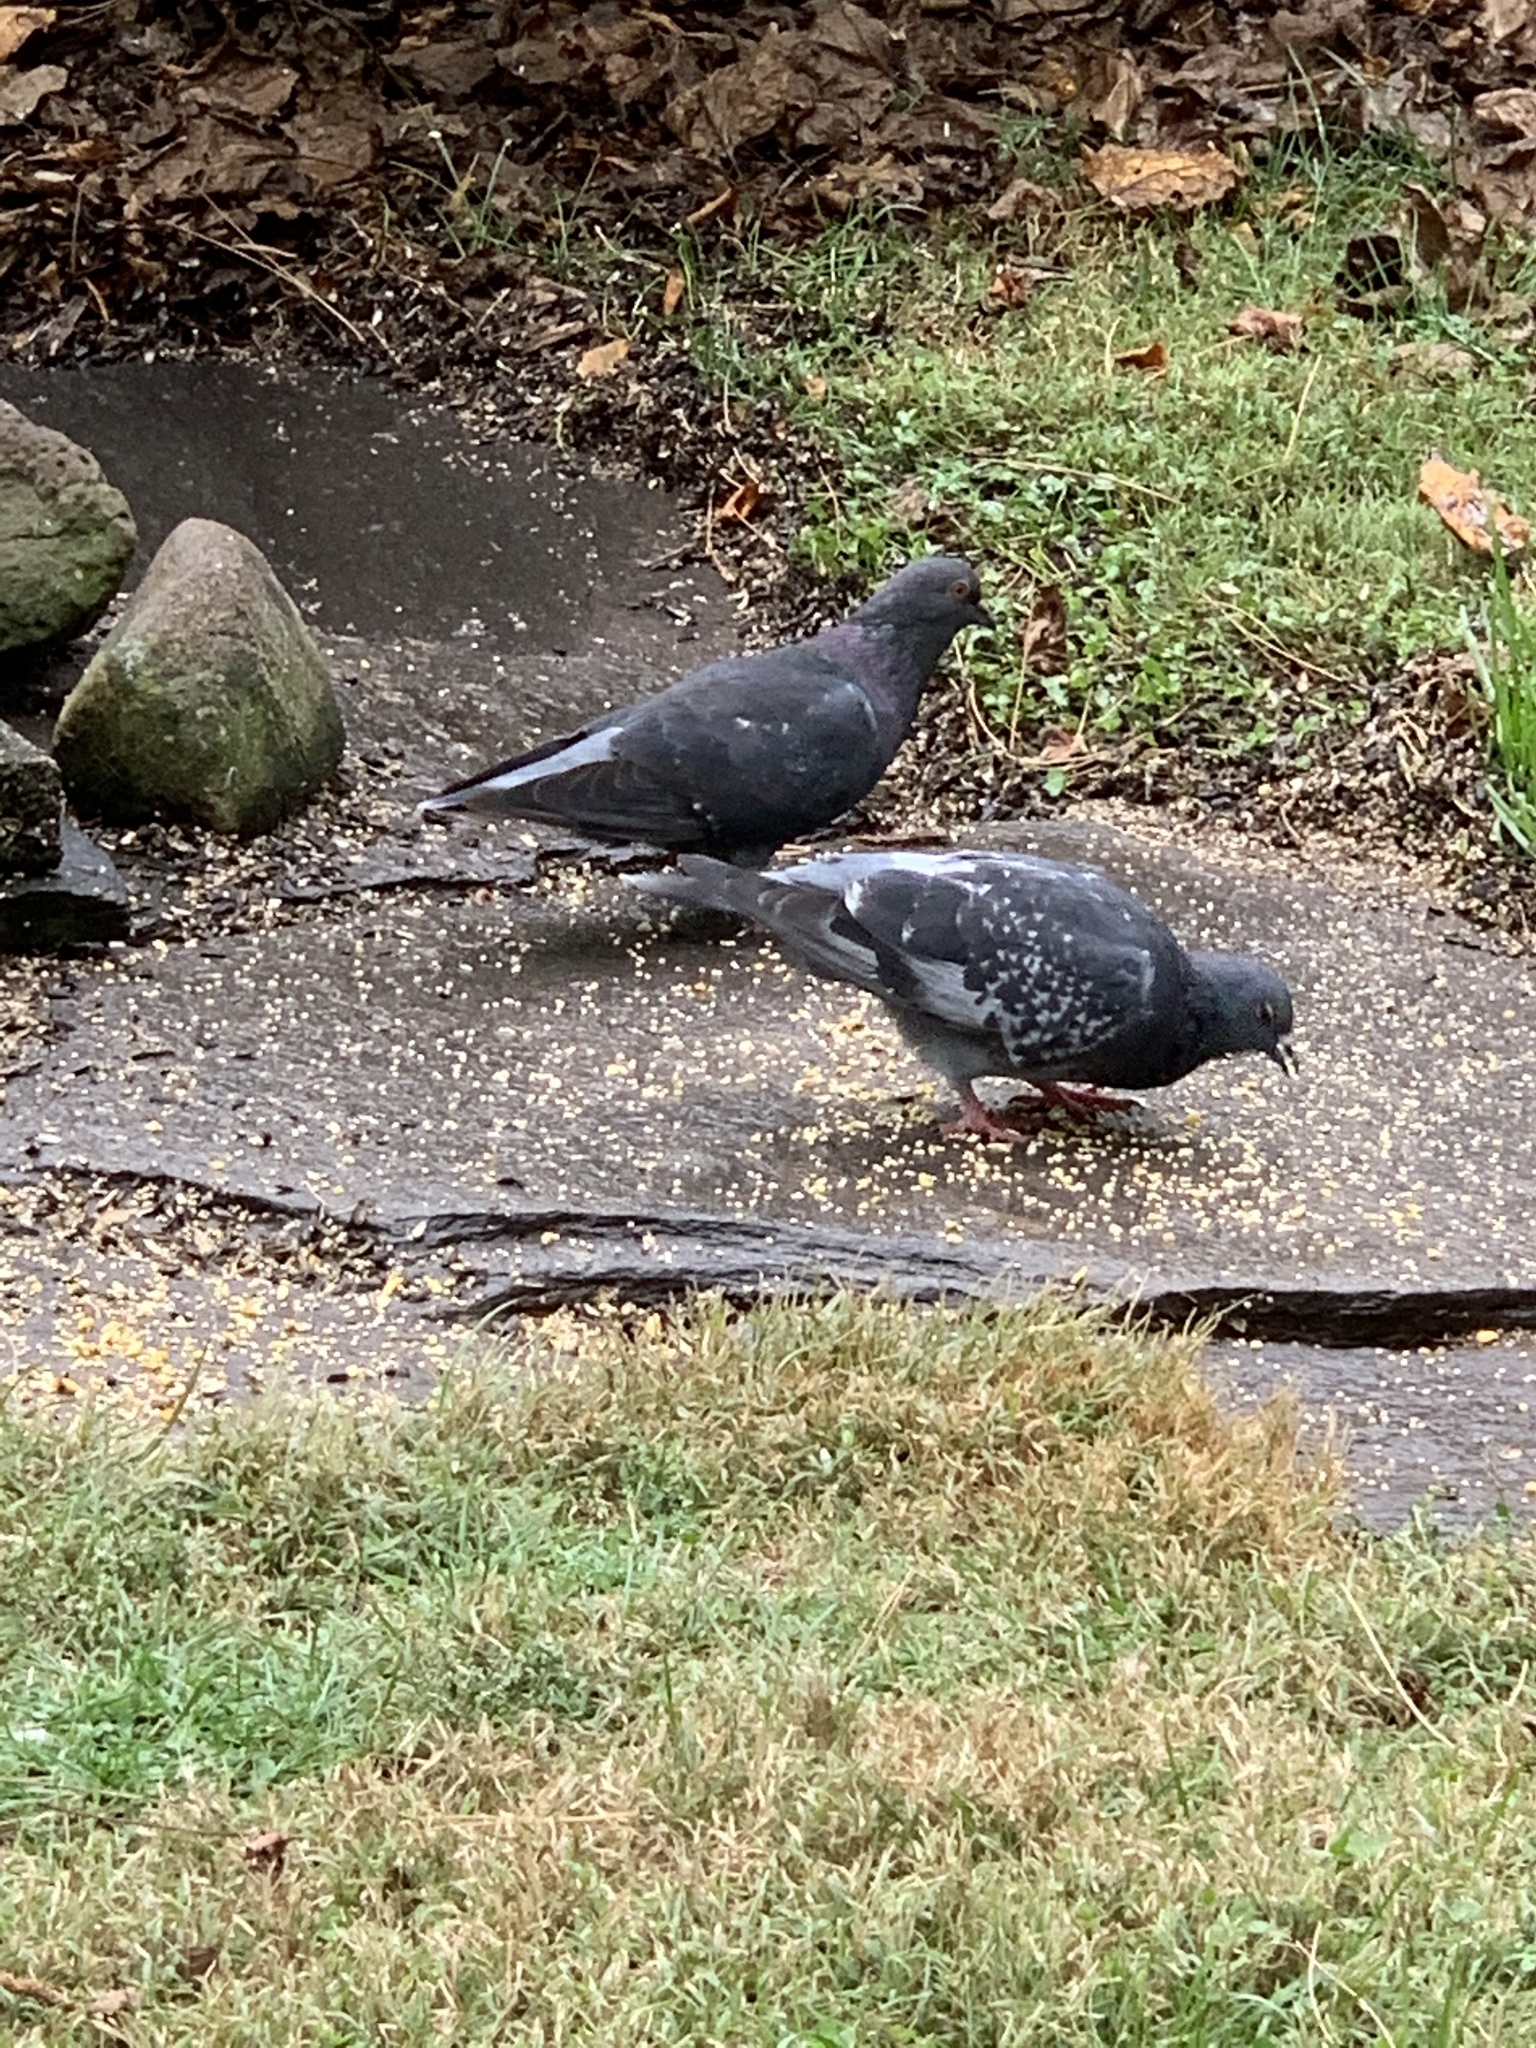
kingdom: Animalia
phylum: Chordata
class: Aves
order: Columbiformes
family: Columbidae
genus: Columba
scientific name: Columba livia
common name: Rock pigeon
